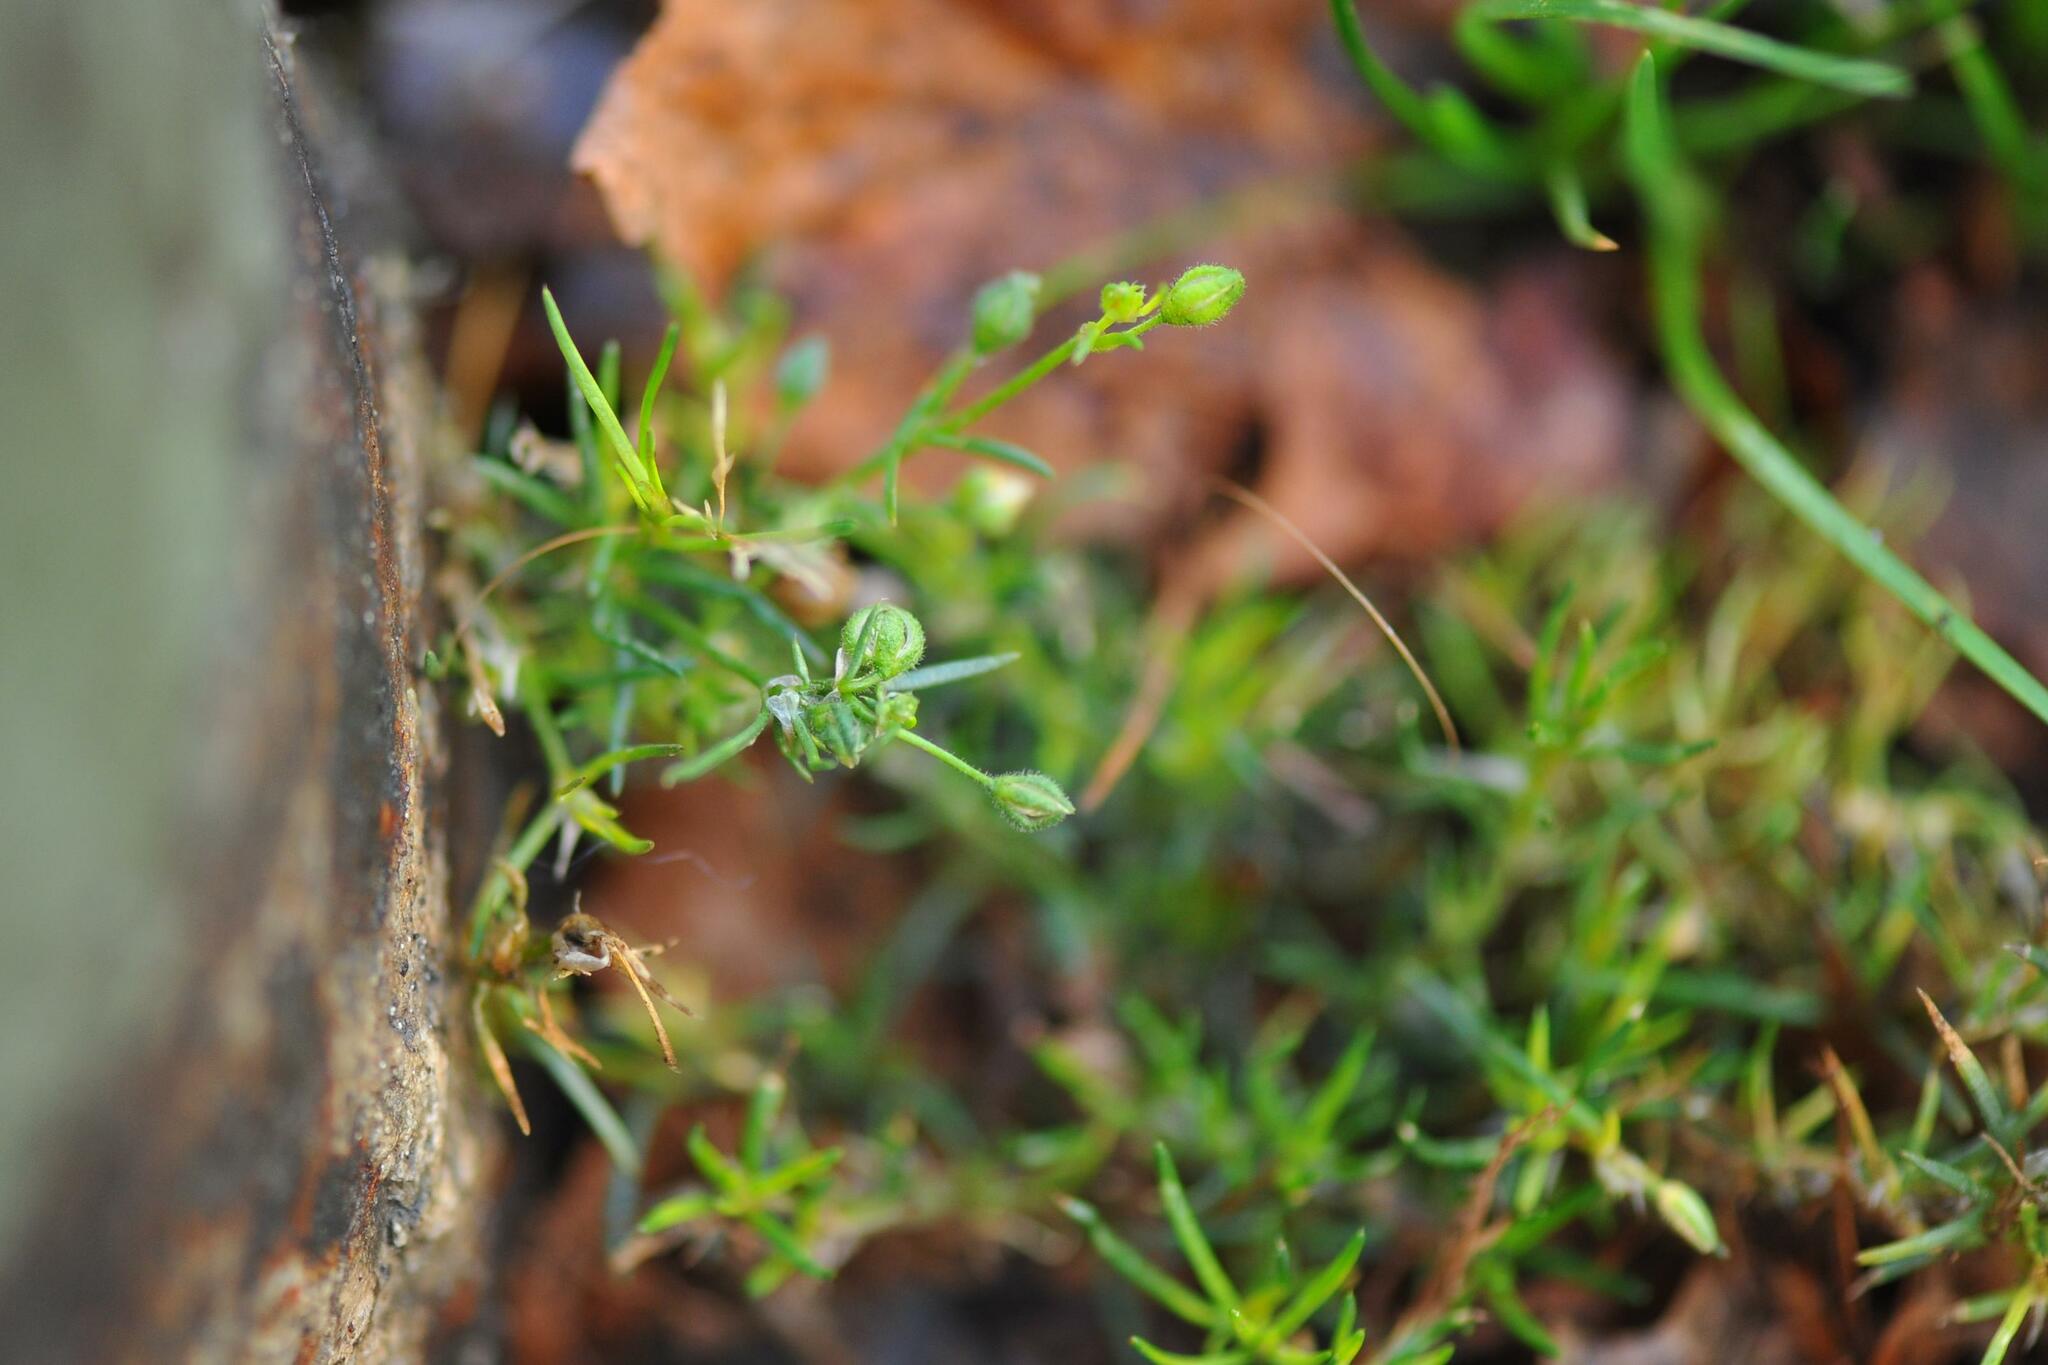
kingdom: Plantae
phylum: Tracheophyta
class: Magnoliopsida
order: Caryophyllales
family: Caryophyllaceae
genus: Sagina
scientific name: Sagina procumbens
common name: Procumbent pearlwort
